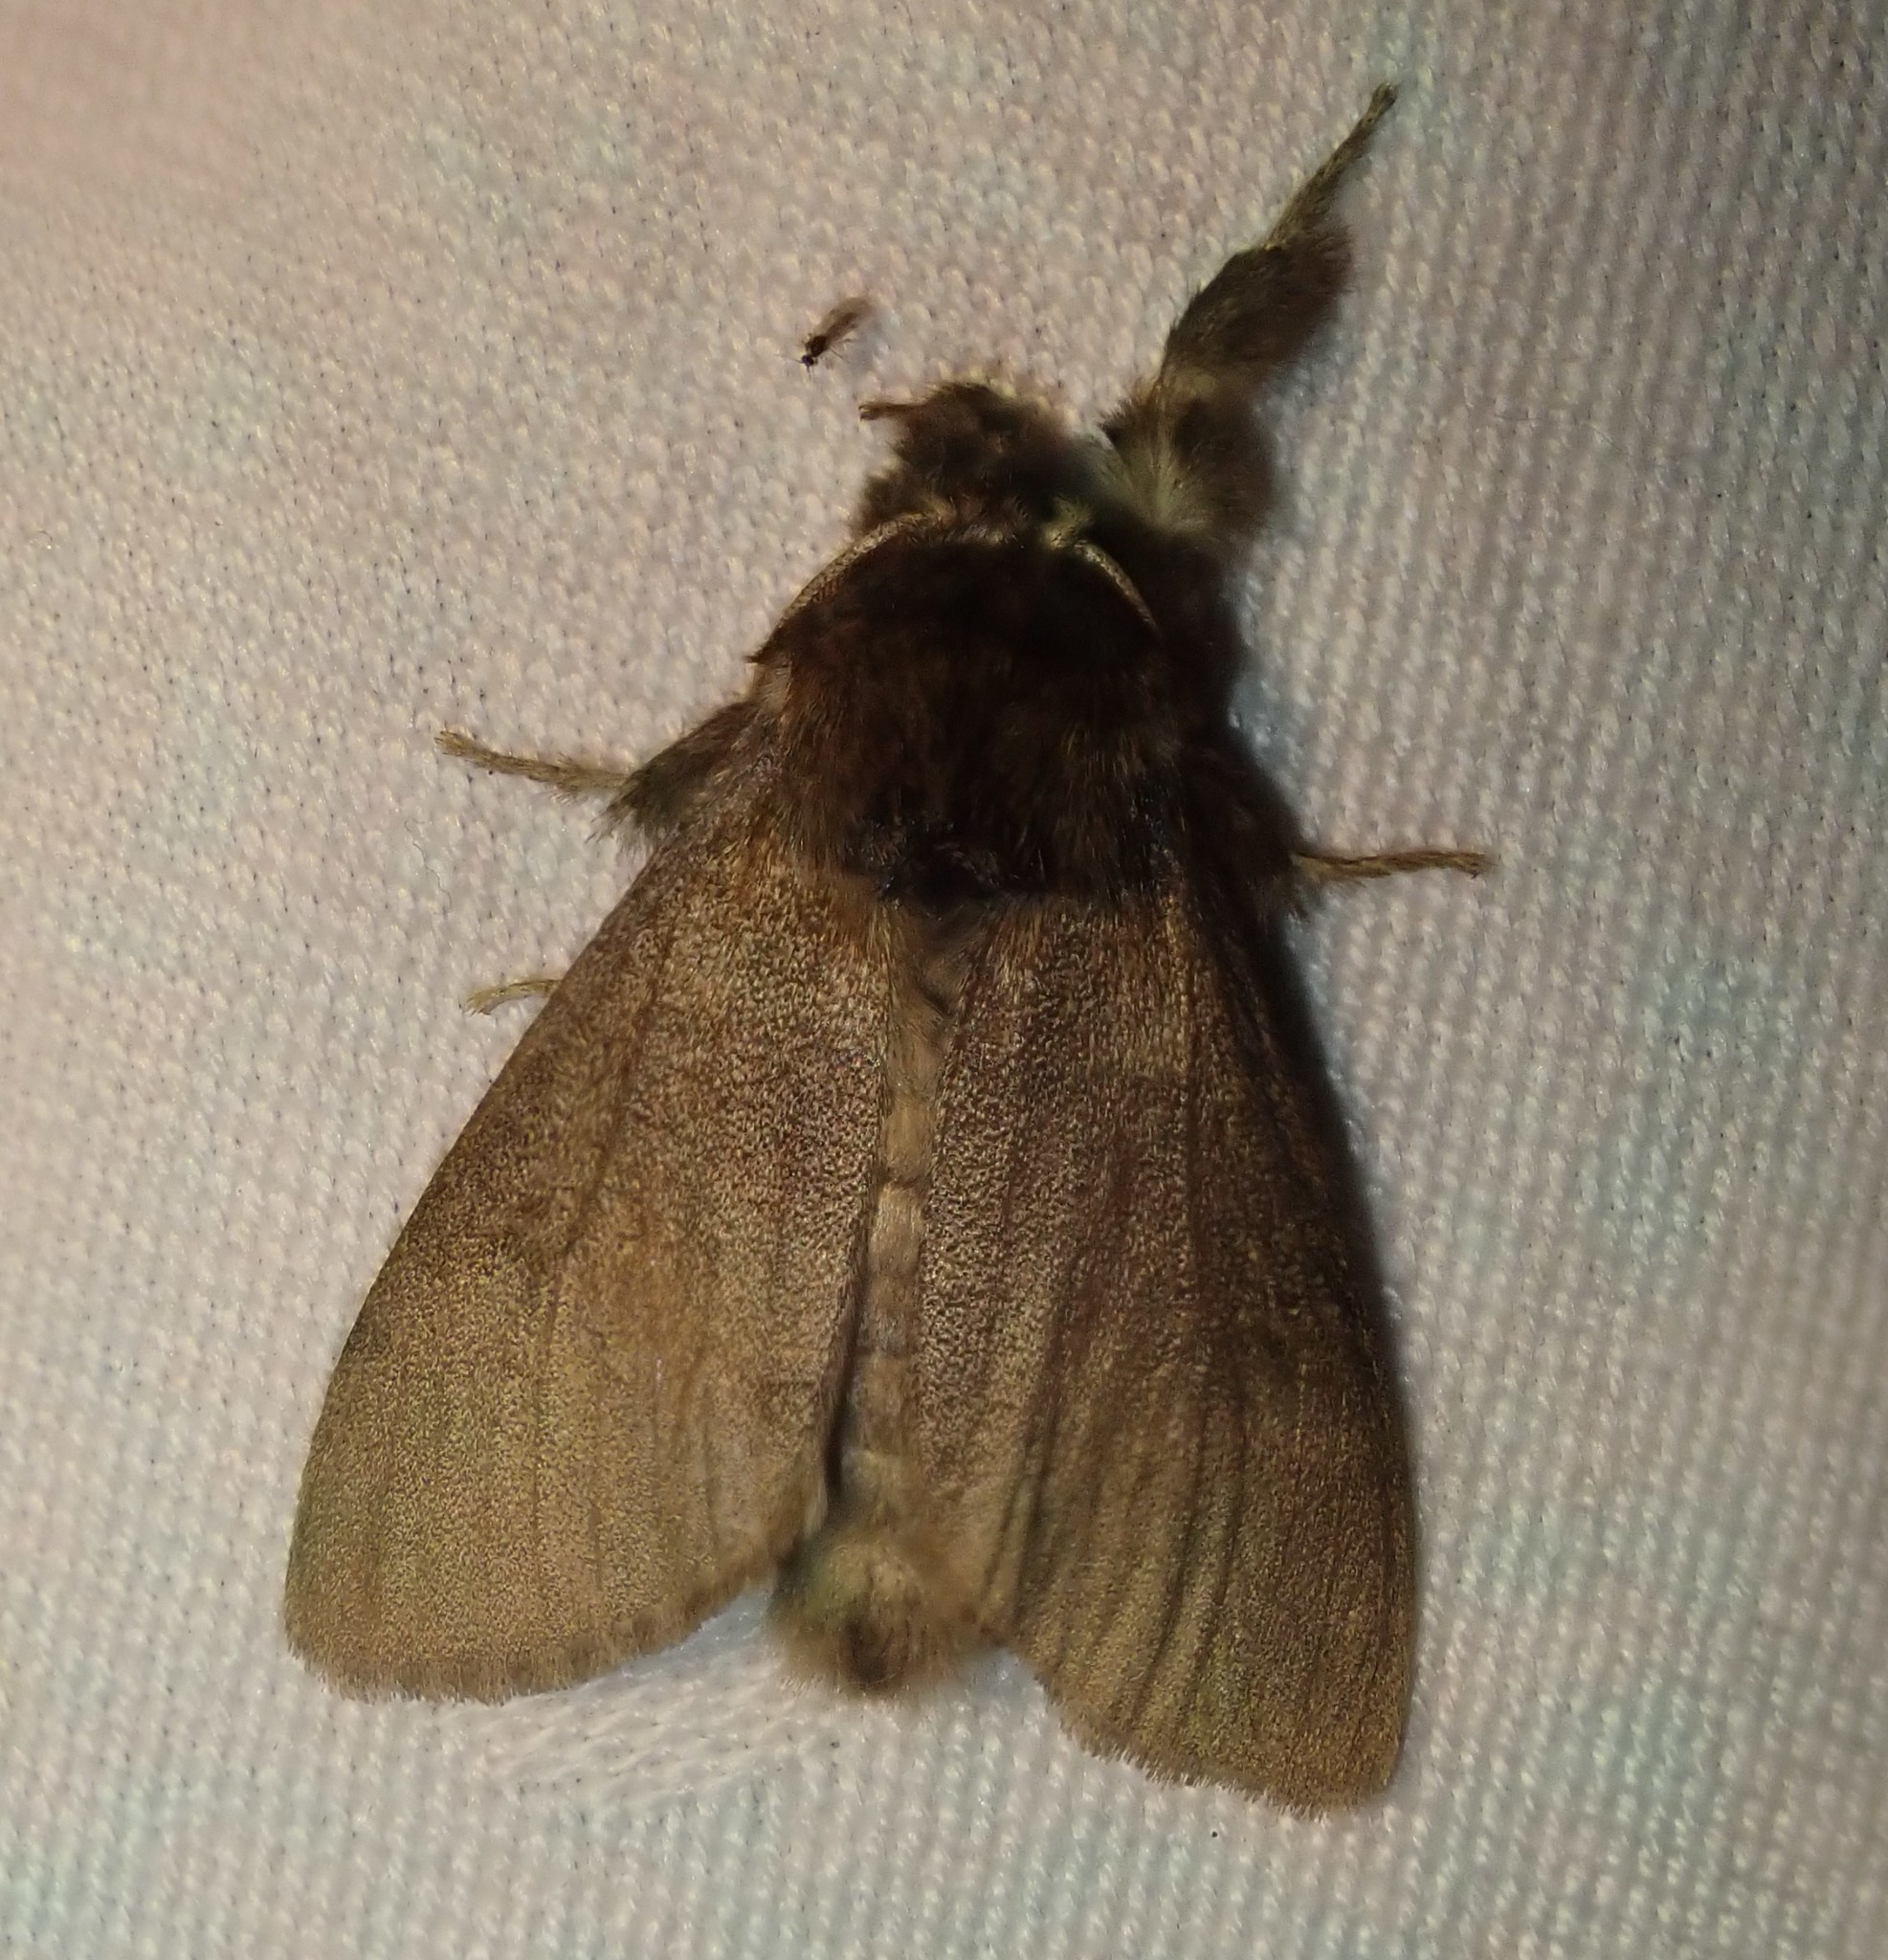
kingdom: Animalia
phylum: Arthropoda
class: Insecta
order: Lepidoptera
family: Erebidae
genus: Calliteara
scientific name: Calliteara pudibunda
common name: Pale tussock
